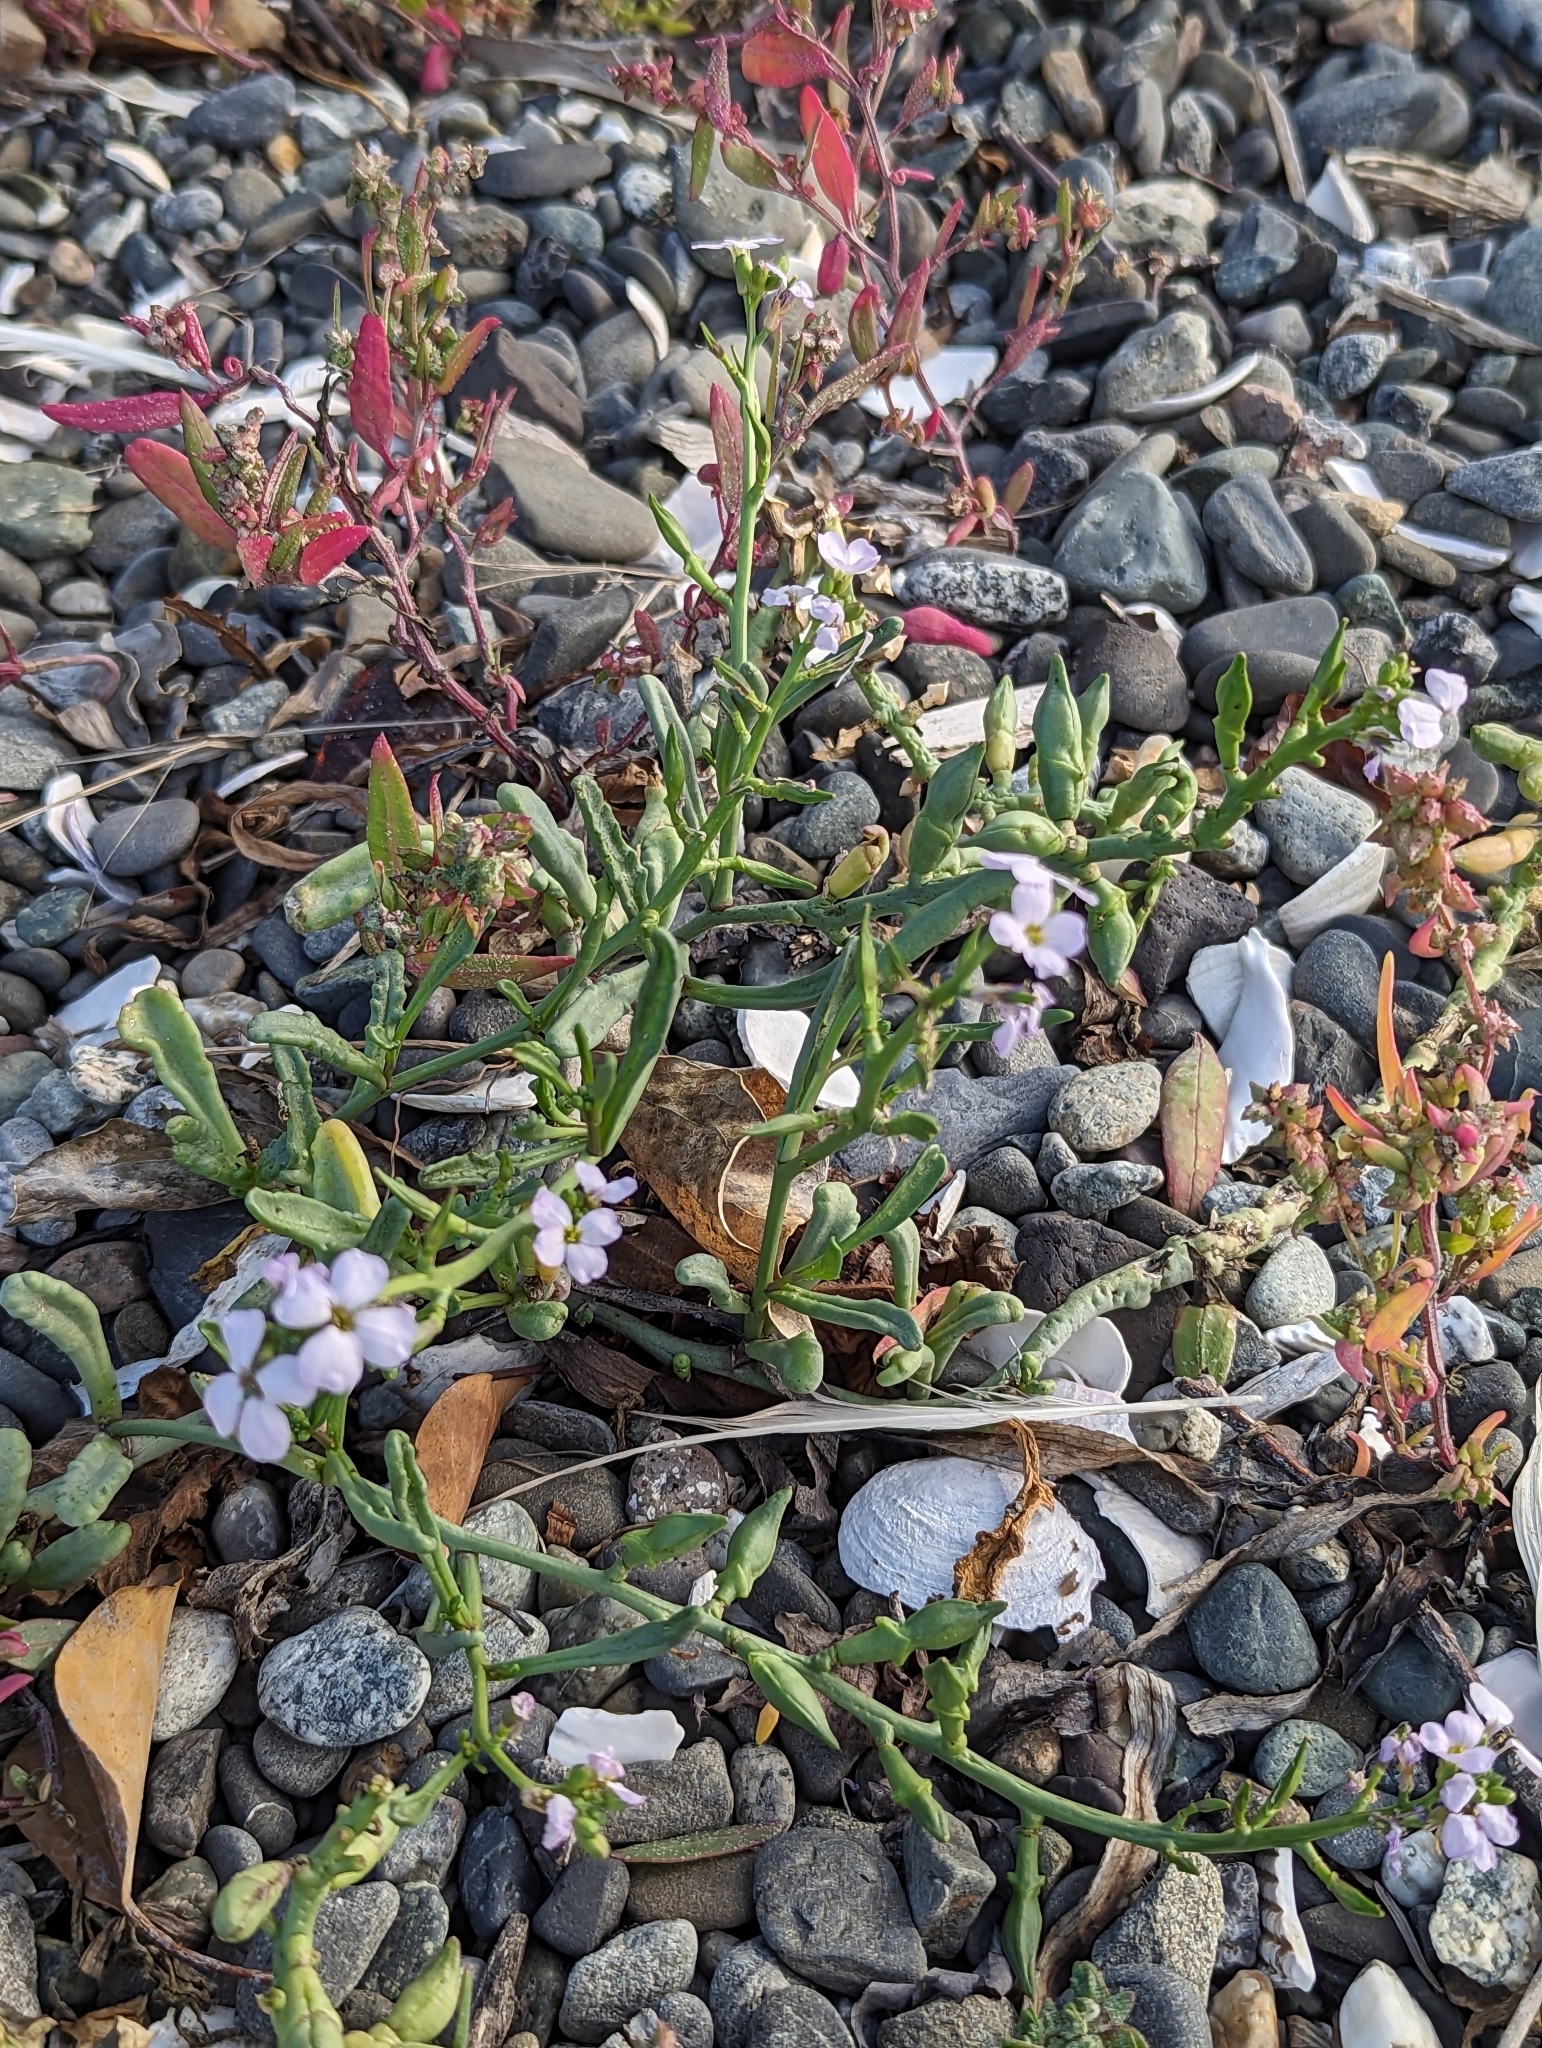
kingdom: Plantae
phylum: Tracheophyta
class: Magnoliopsida
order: Brassicales
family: Brassicaceae
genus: Cakile
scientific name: Cakile maritima
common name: Sea rocket
